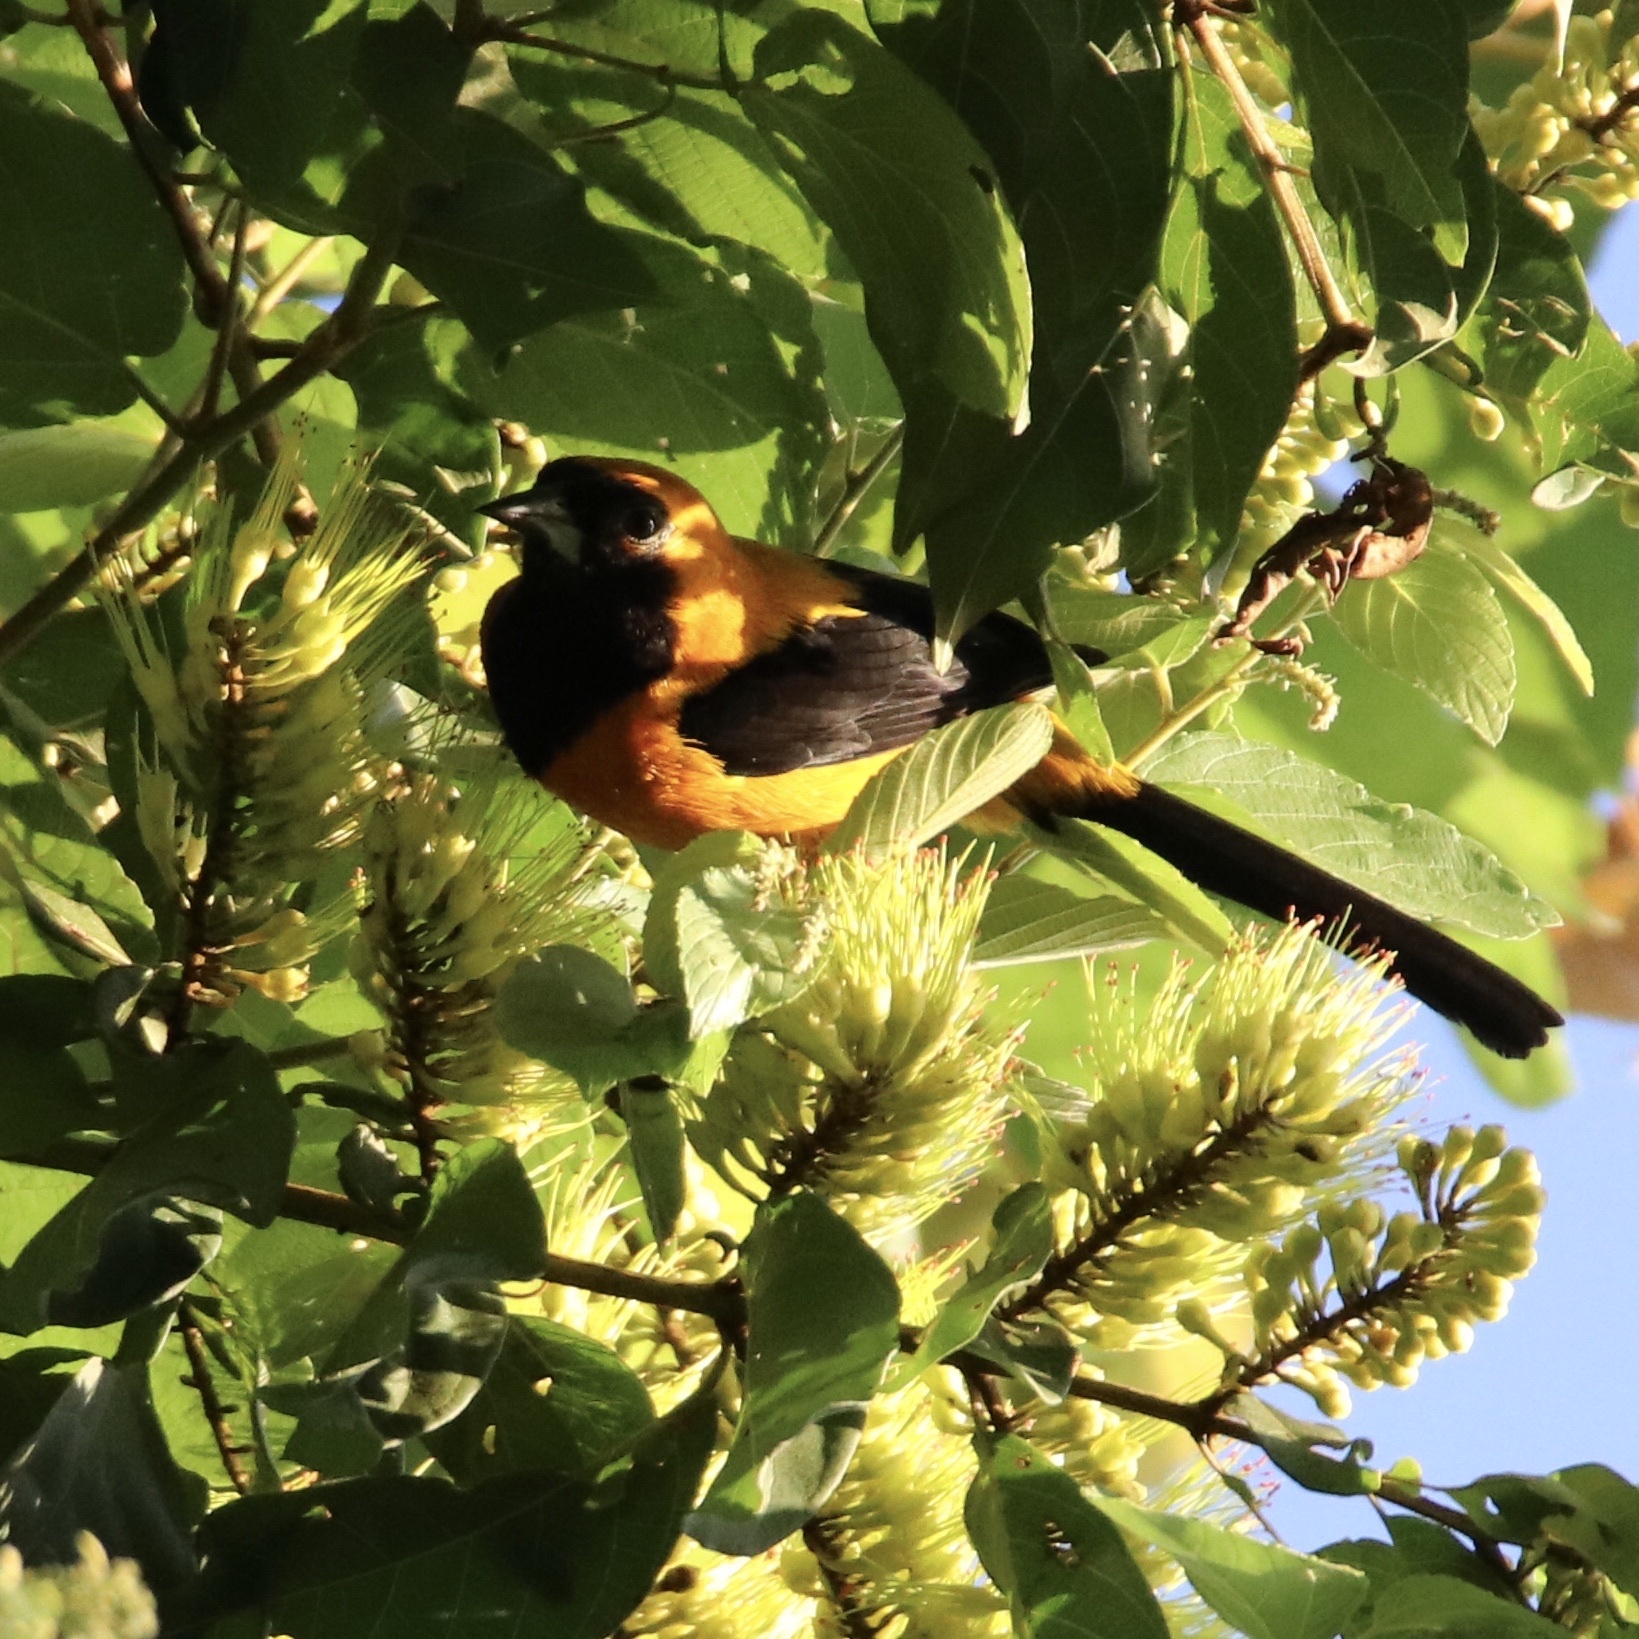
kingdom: Animalia
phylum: Chordata
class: Aves
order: Passeriformes
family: Icteridae
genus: Icterus
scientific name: Icterus chrysater
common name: Yellow-backed oriole
